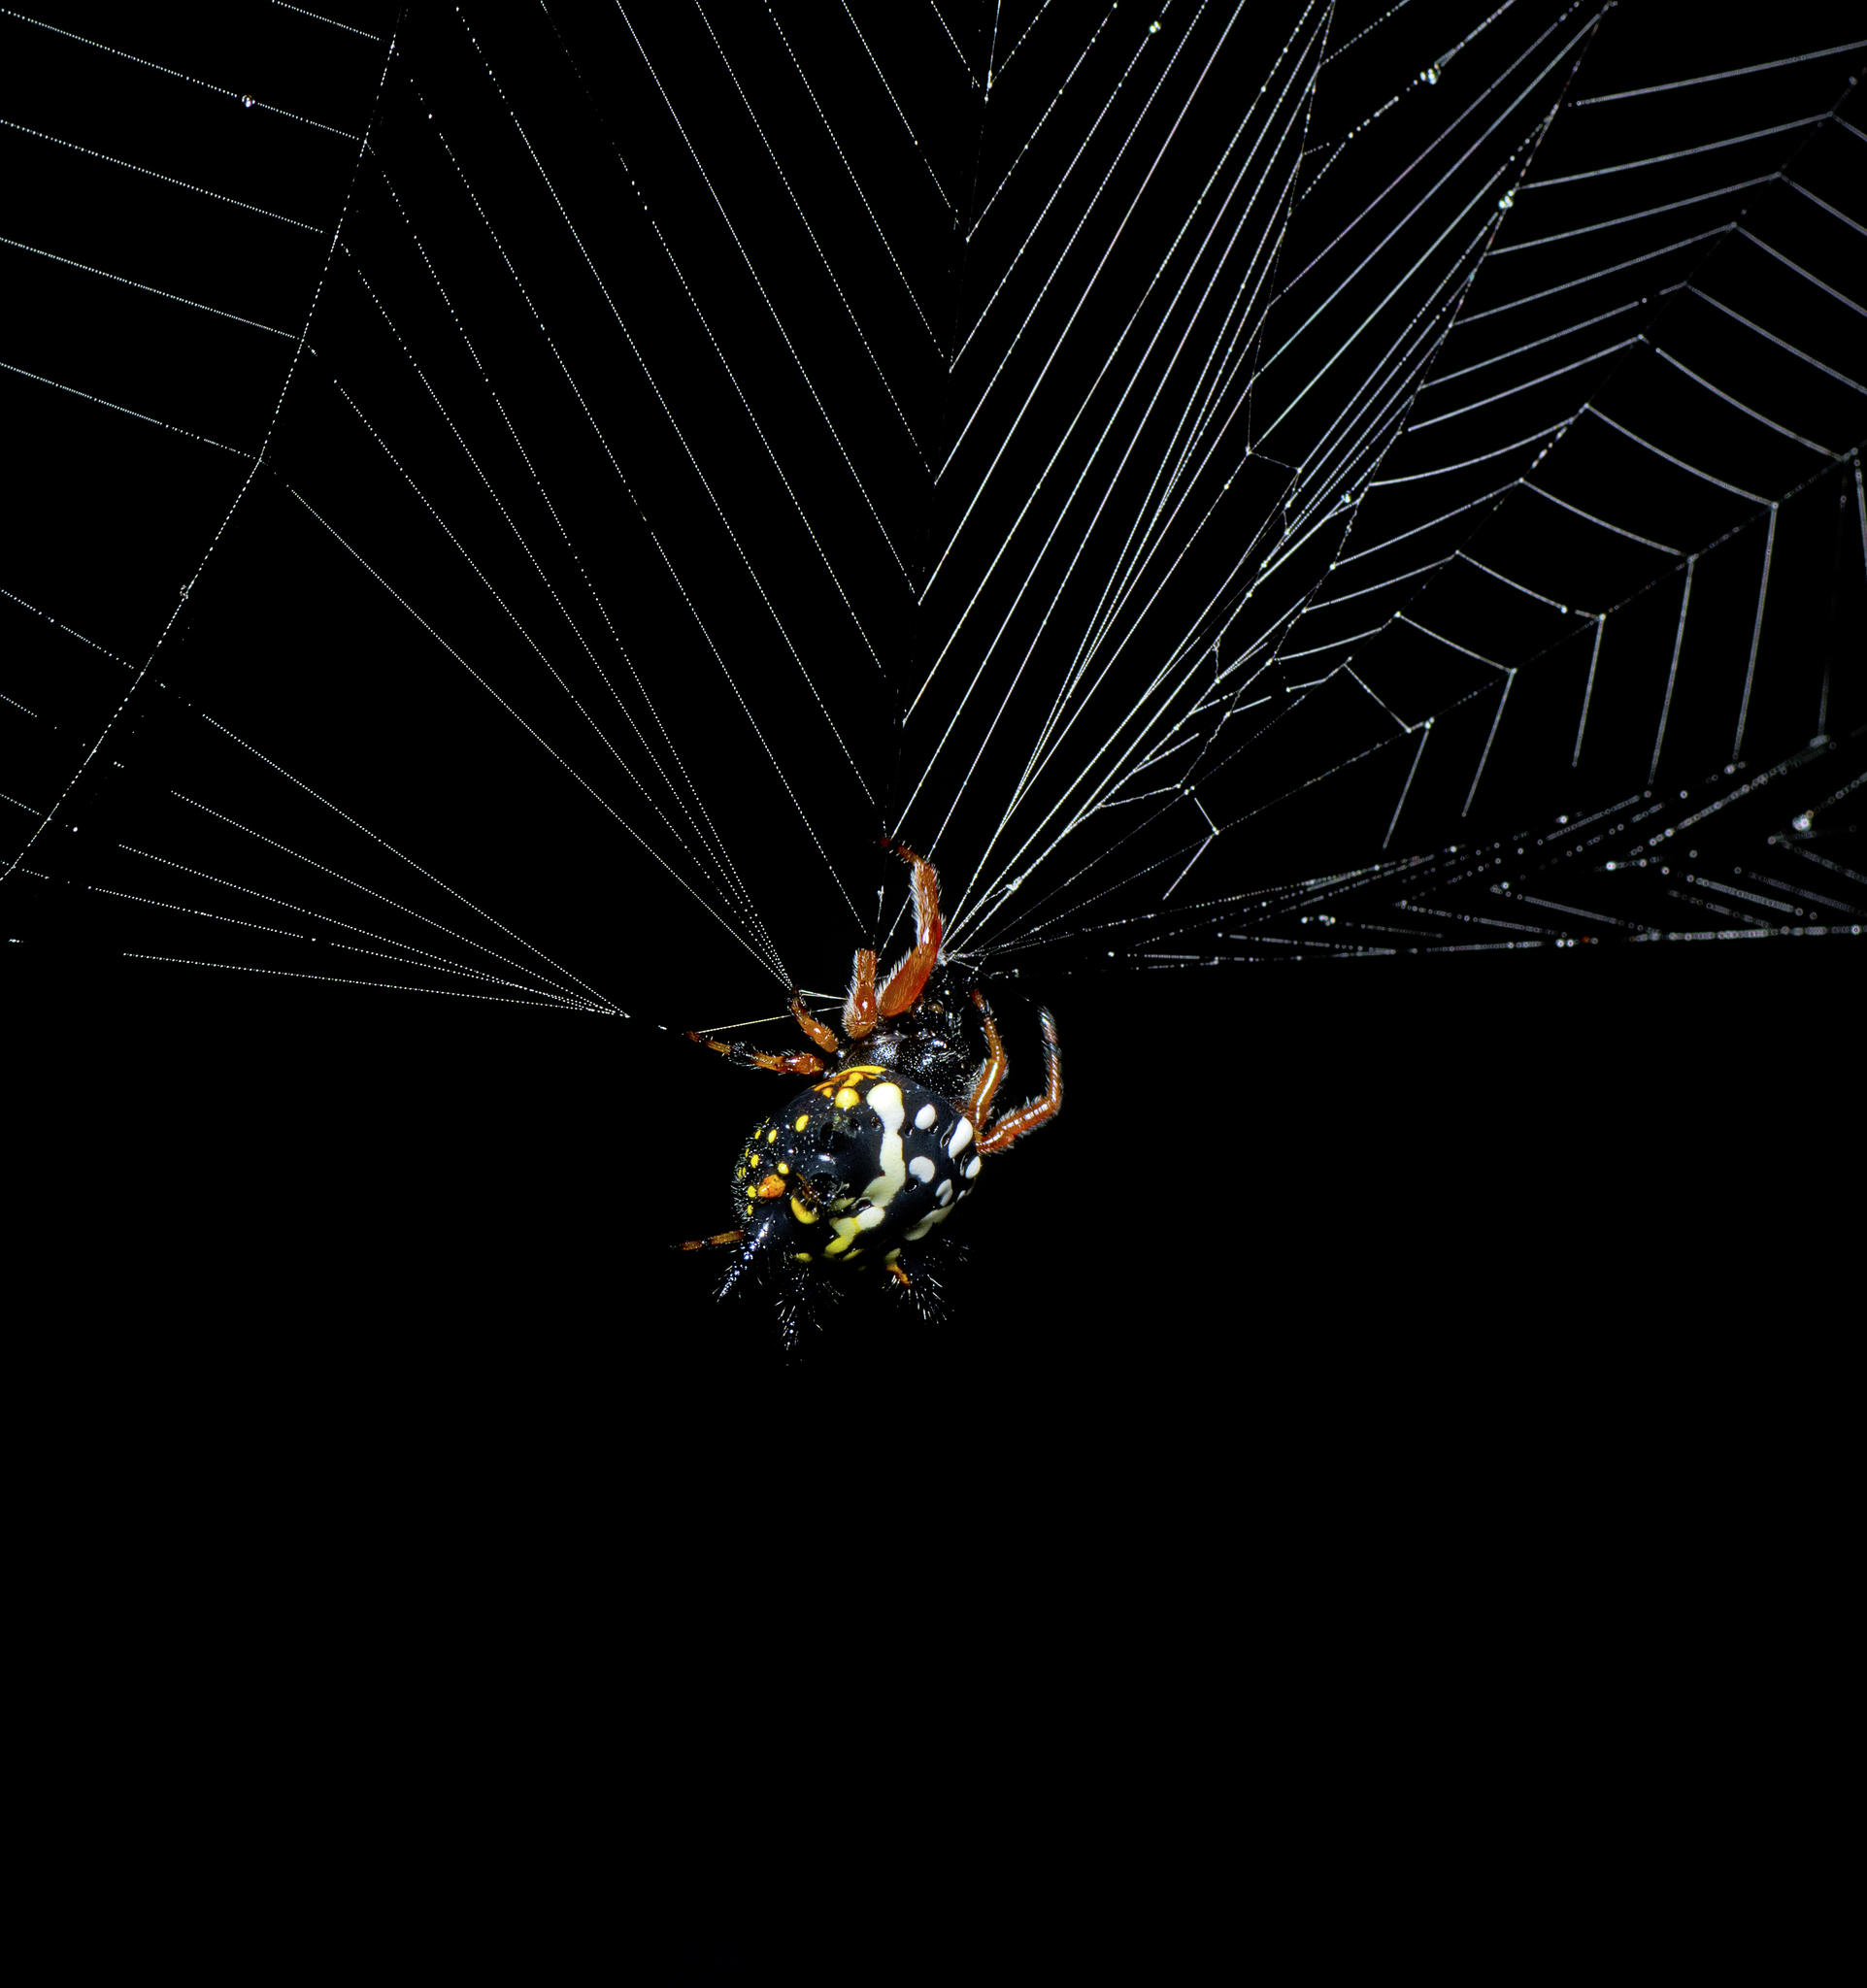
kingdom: Animalia
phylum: Arthropoda
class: Arachnida
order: Araneae
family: Araneidae
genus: Austracantha
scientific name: Austracantha minax
